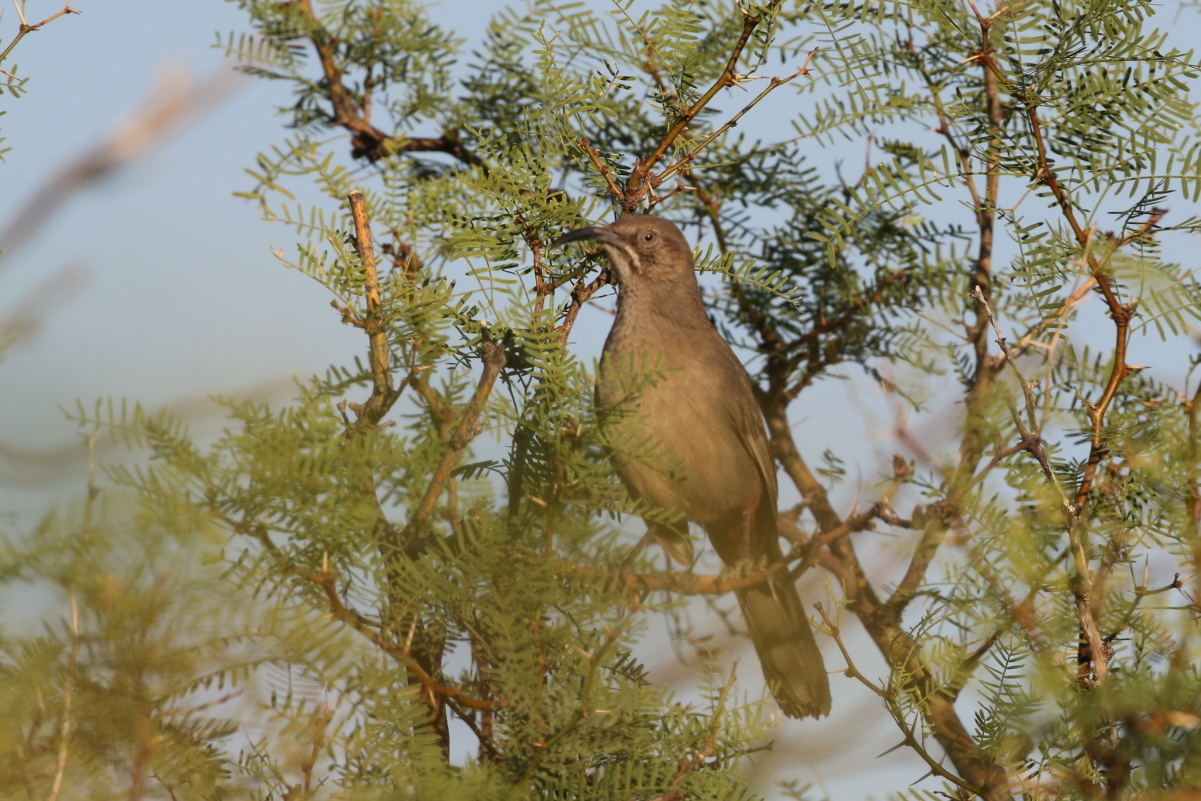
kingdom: Animalia
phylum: Chordata
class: Aves
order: Passeriformes
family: Mimidae
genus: Toxostoma
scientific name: Toxostoma crissale
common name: Crissal thrasher
